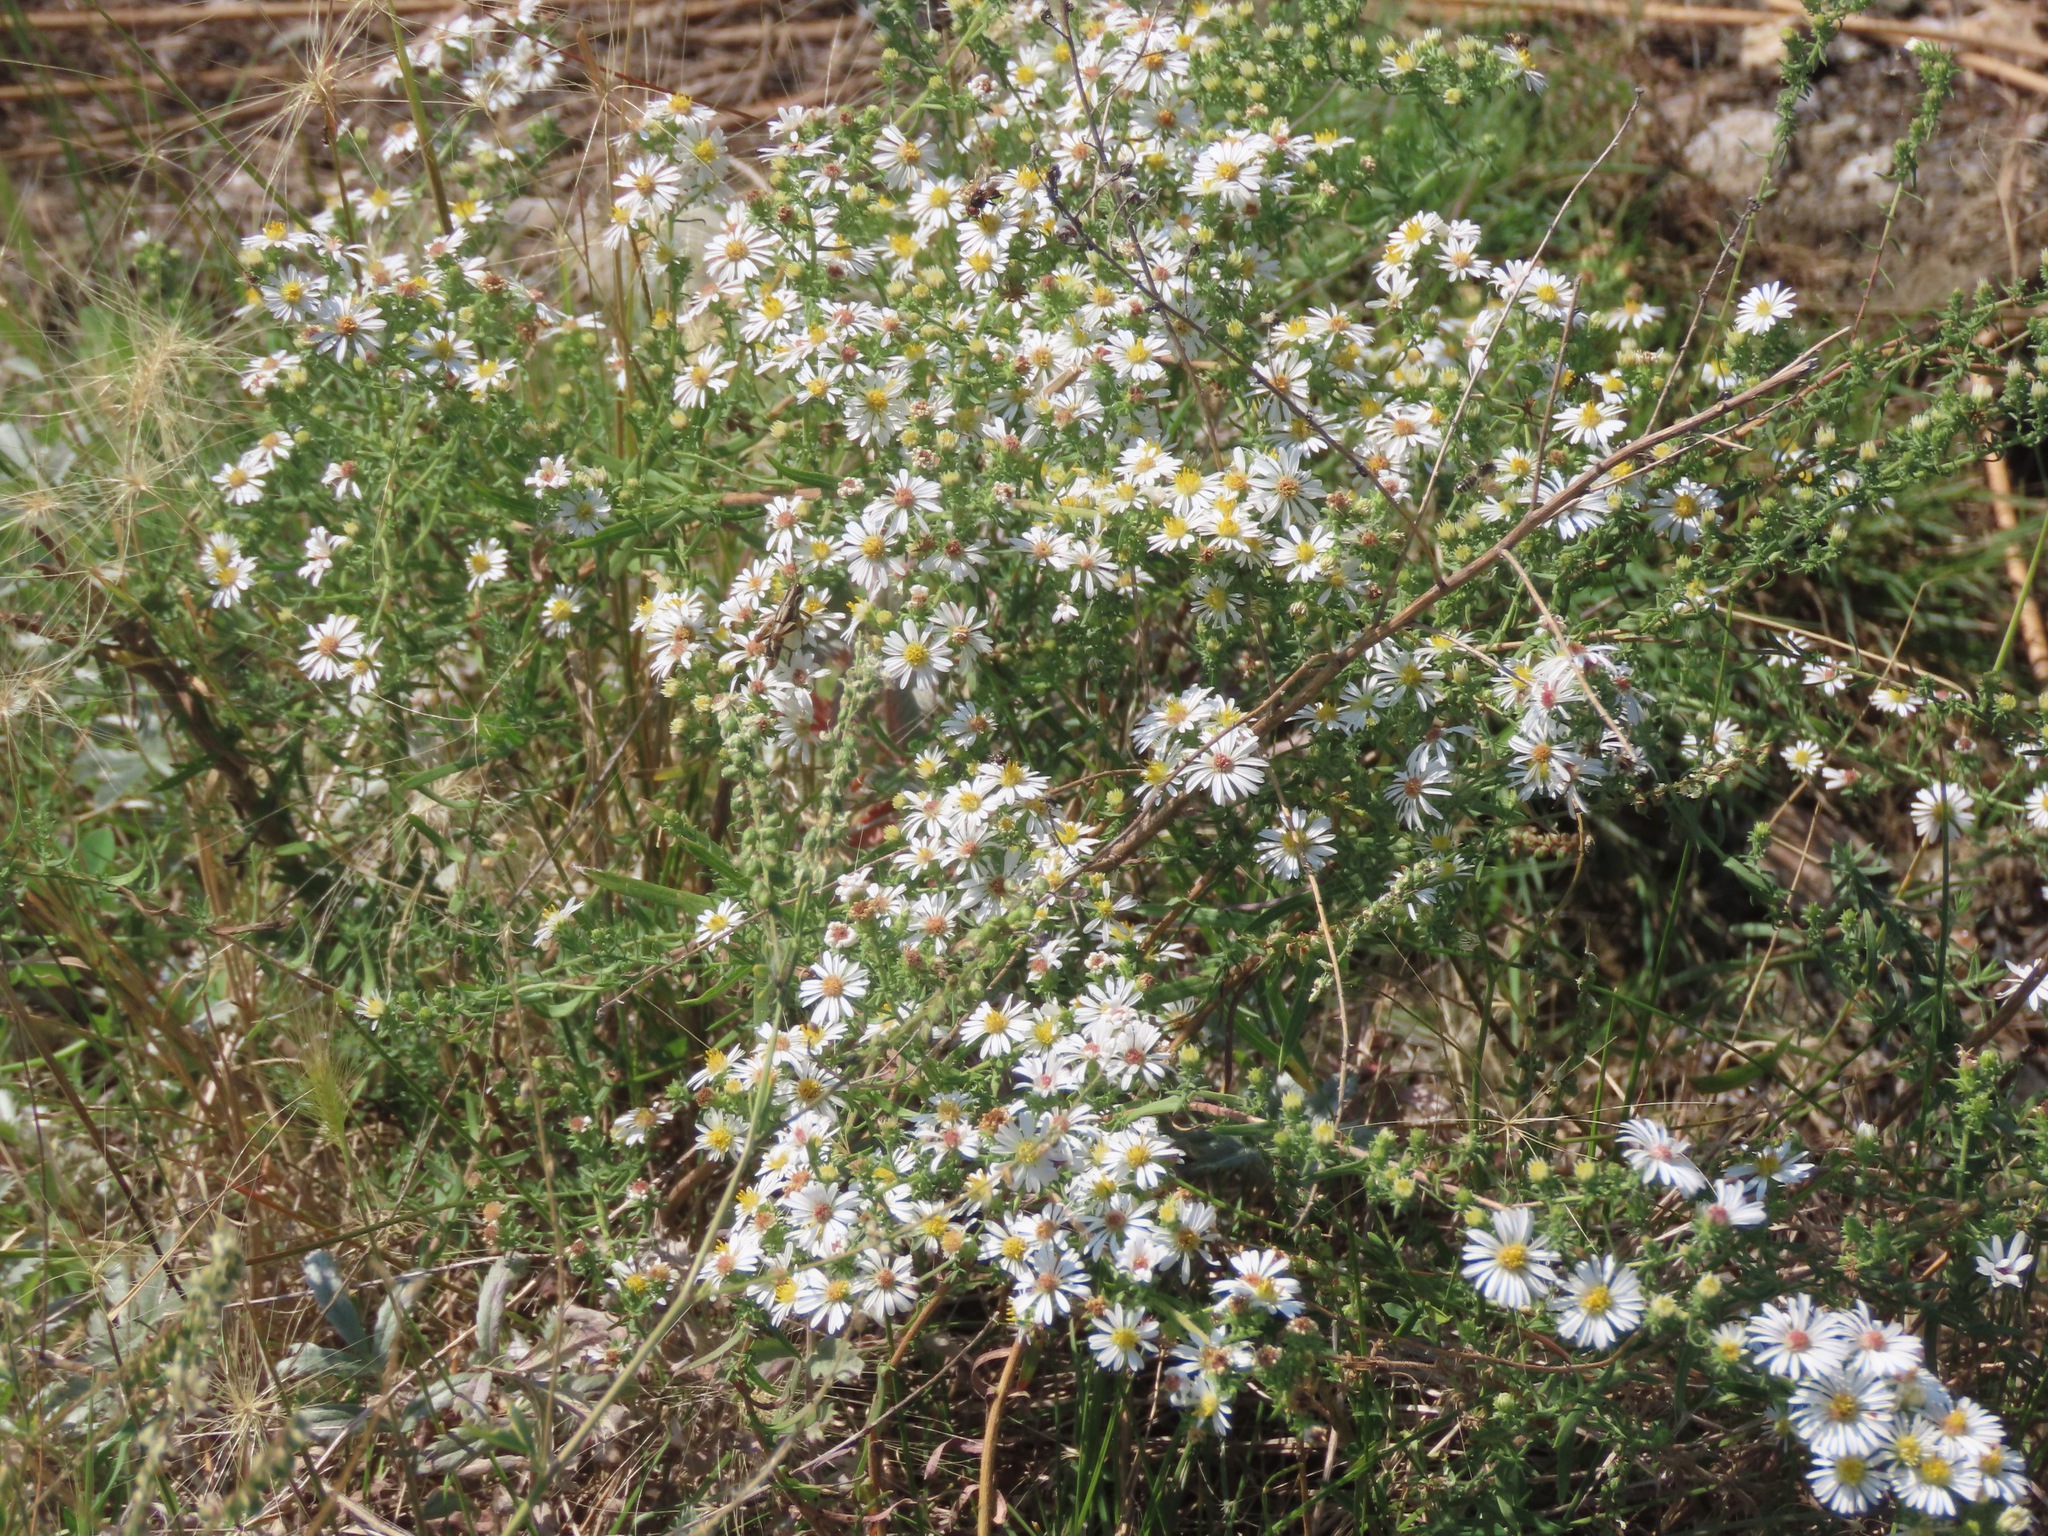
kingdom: Plantae
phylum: Tracheophyta
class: Magnoliopsida
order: Asterales
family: Asteraceae
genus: Symphyotrichum
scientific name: Symphyotrichum ericoides
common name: Heath aster
